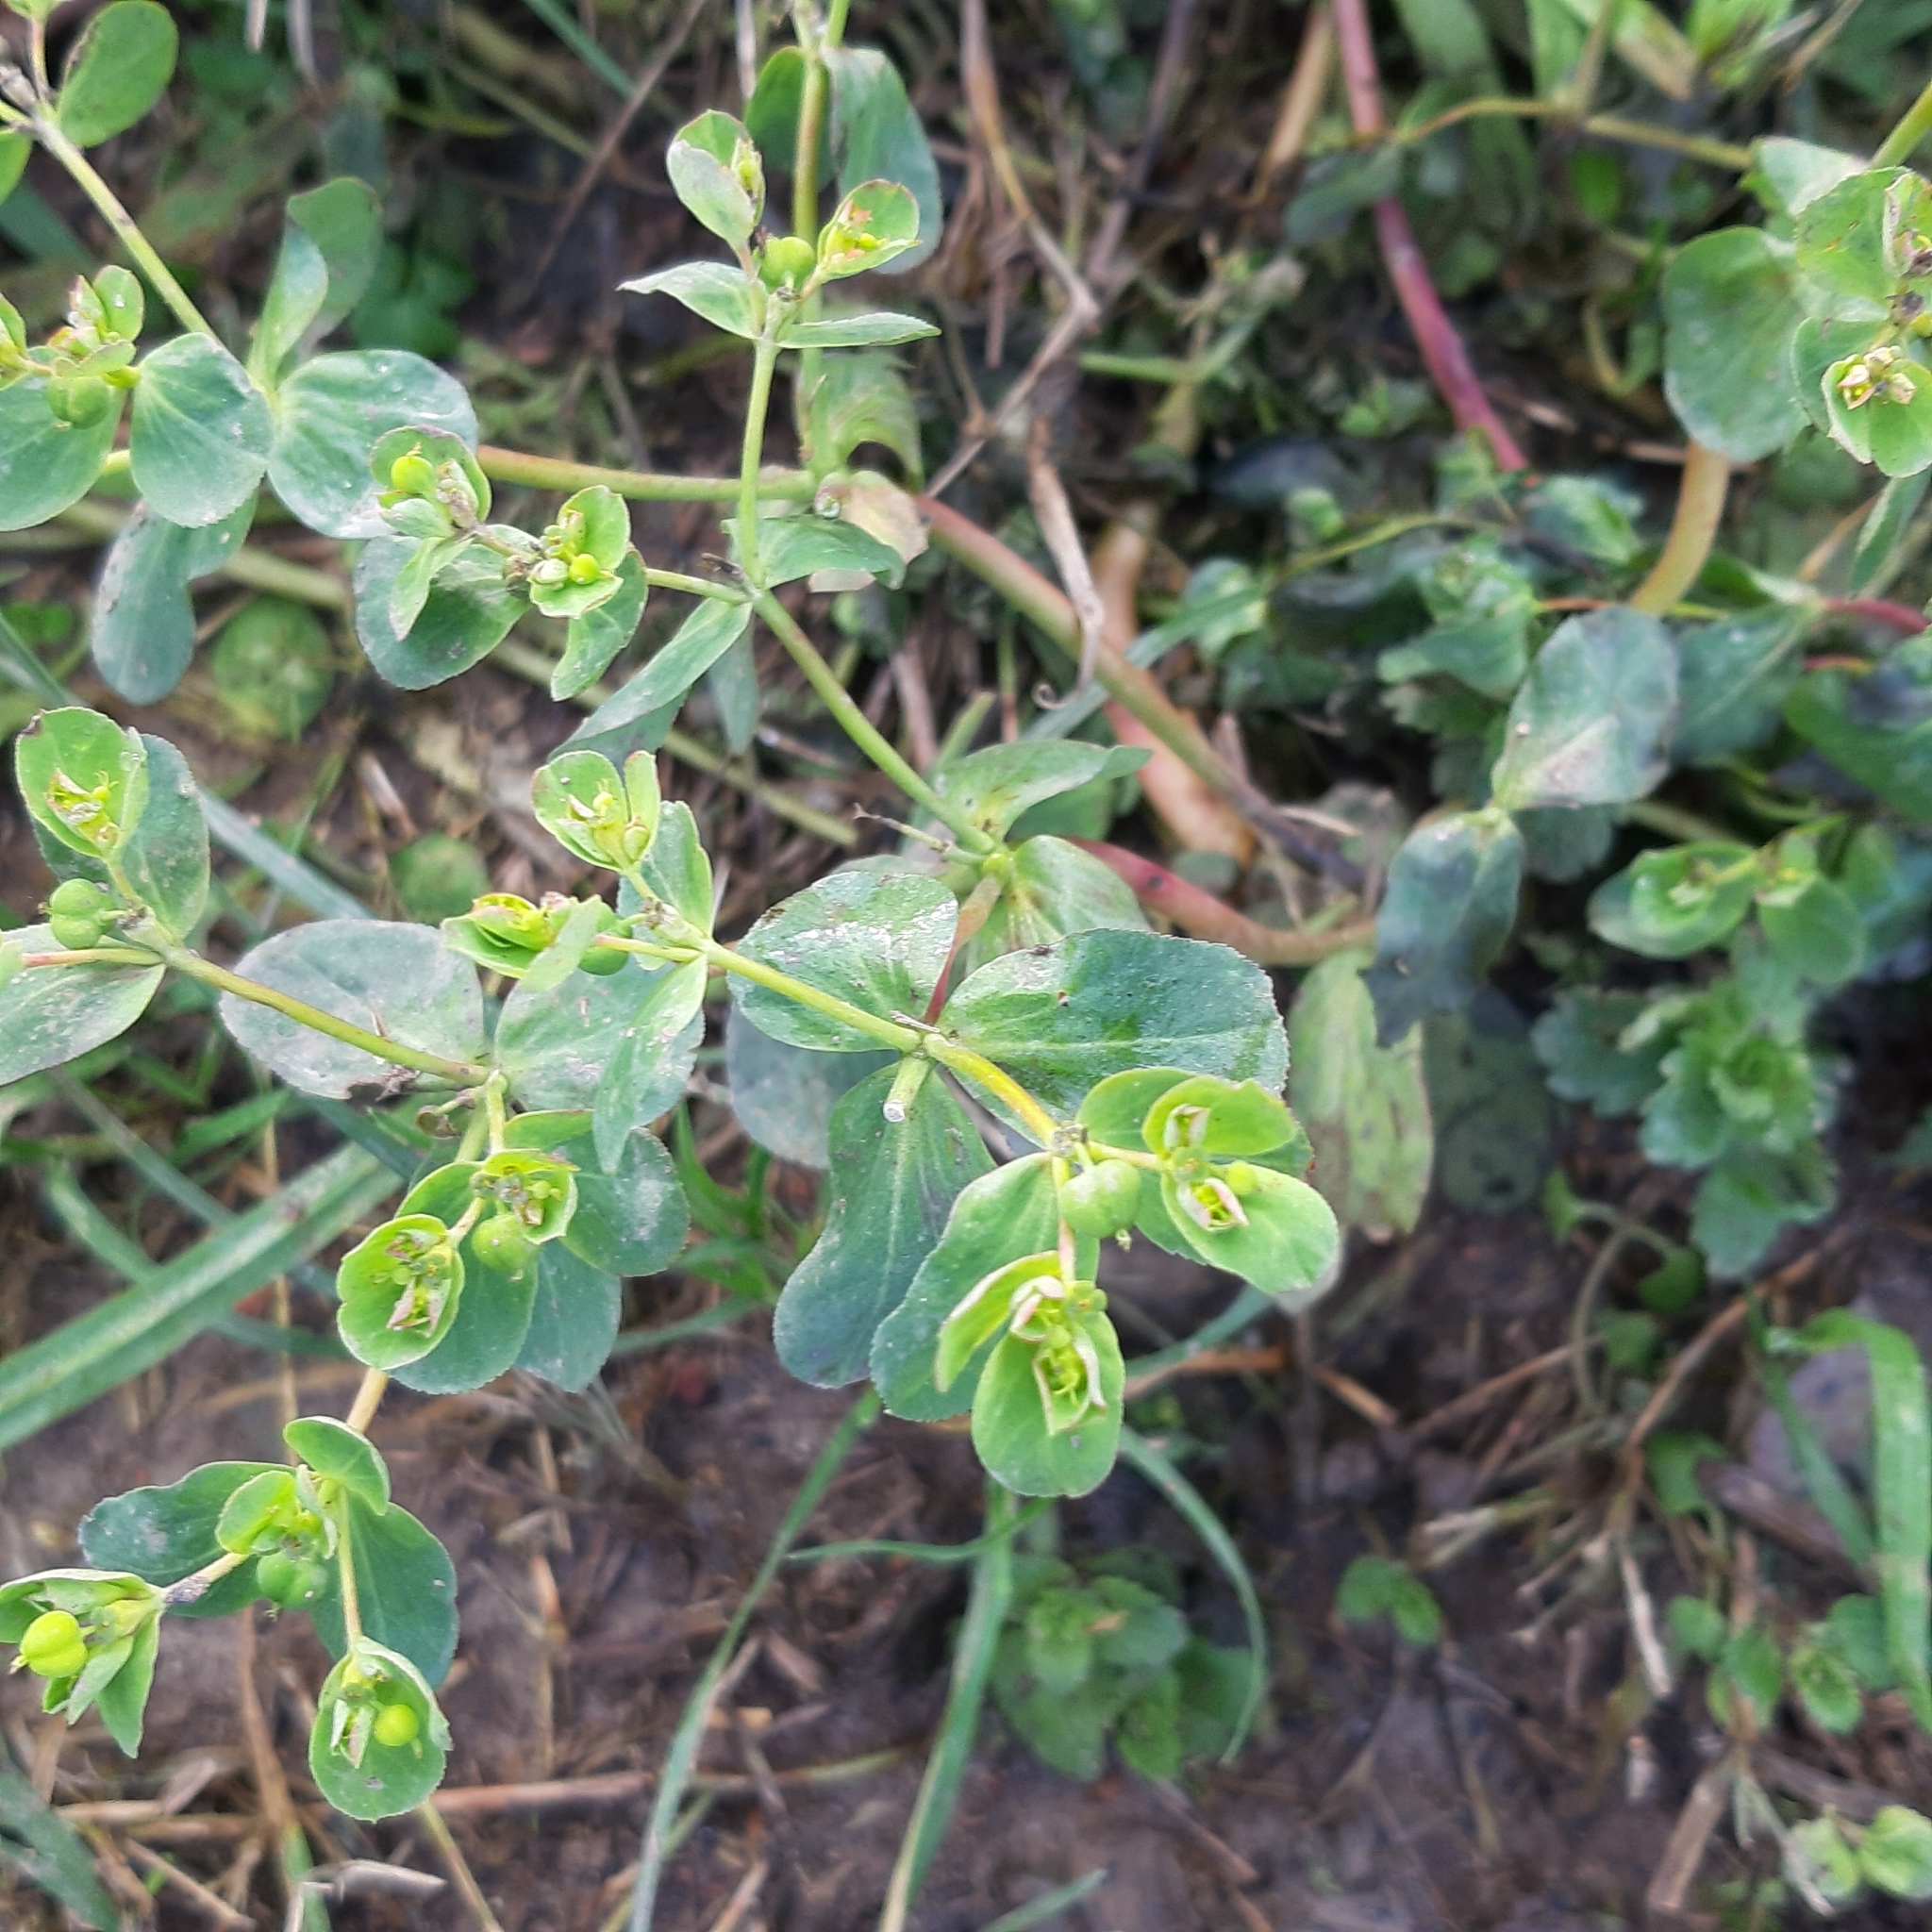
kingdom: Plantae
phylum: Tracheophyta
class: Magnoliopsida
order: Malpighiales
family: Euphorbiaceae
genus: Euphorbia
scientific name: Euphorbia helioscopia
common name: Sun spurge
